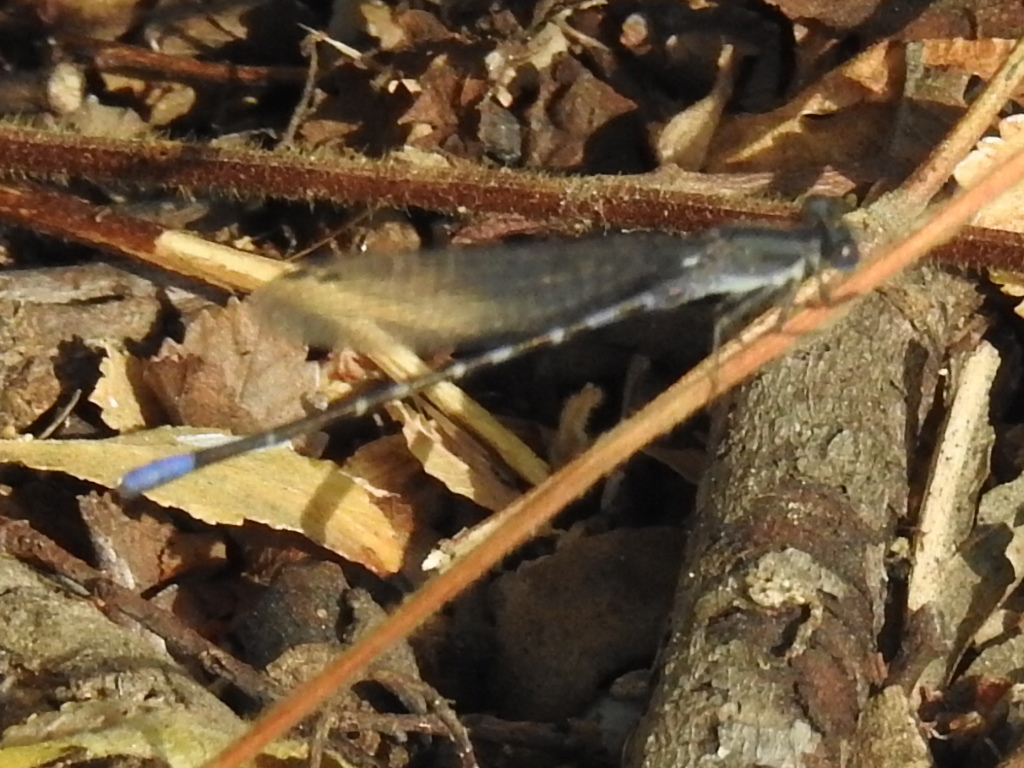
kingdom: Animalia
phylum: Arthropoda
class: Insecta
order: Odonata
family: Coenagrionidae
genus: Argia
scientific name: Argia immunda
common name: Kiowa dancer
